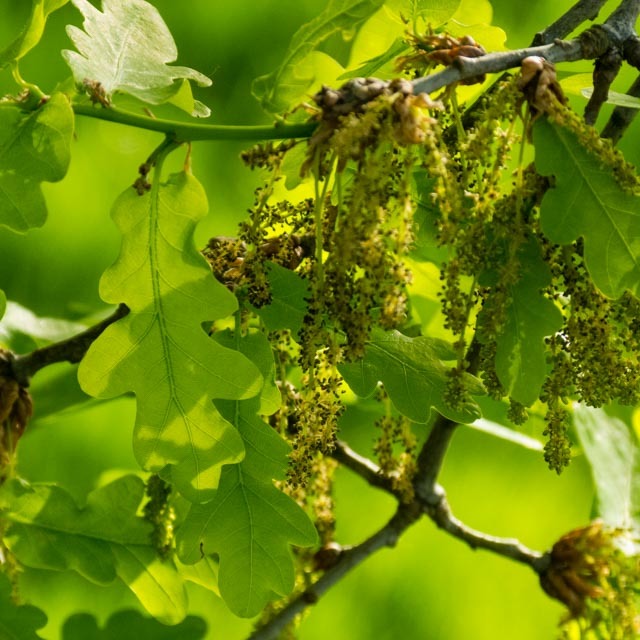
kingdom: Plantae
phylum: Tracheophyta
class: Magnoliopsida
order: Fagales
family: Fagaceae
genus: Quercus
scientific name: Quercus robur
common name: Pedunculate oak
